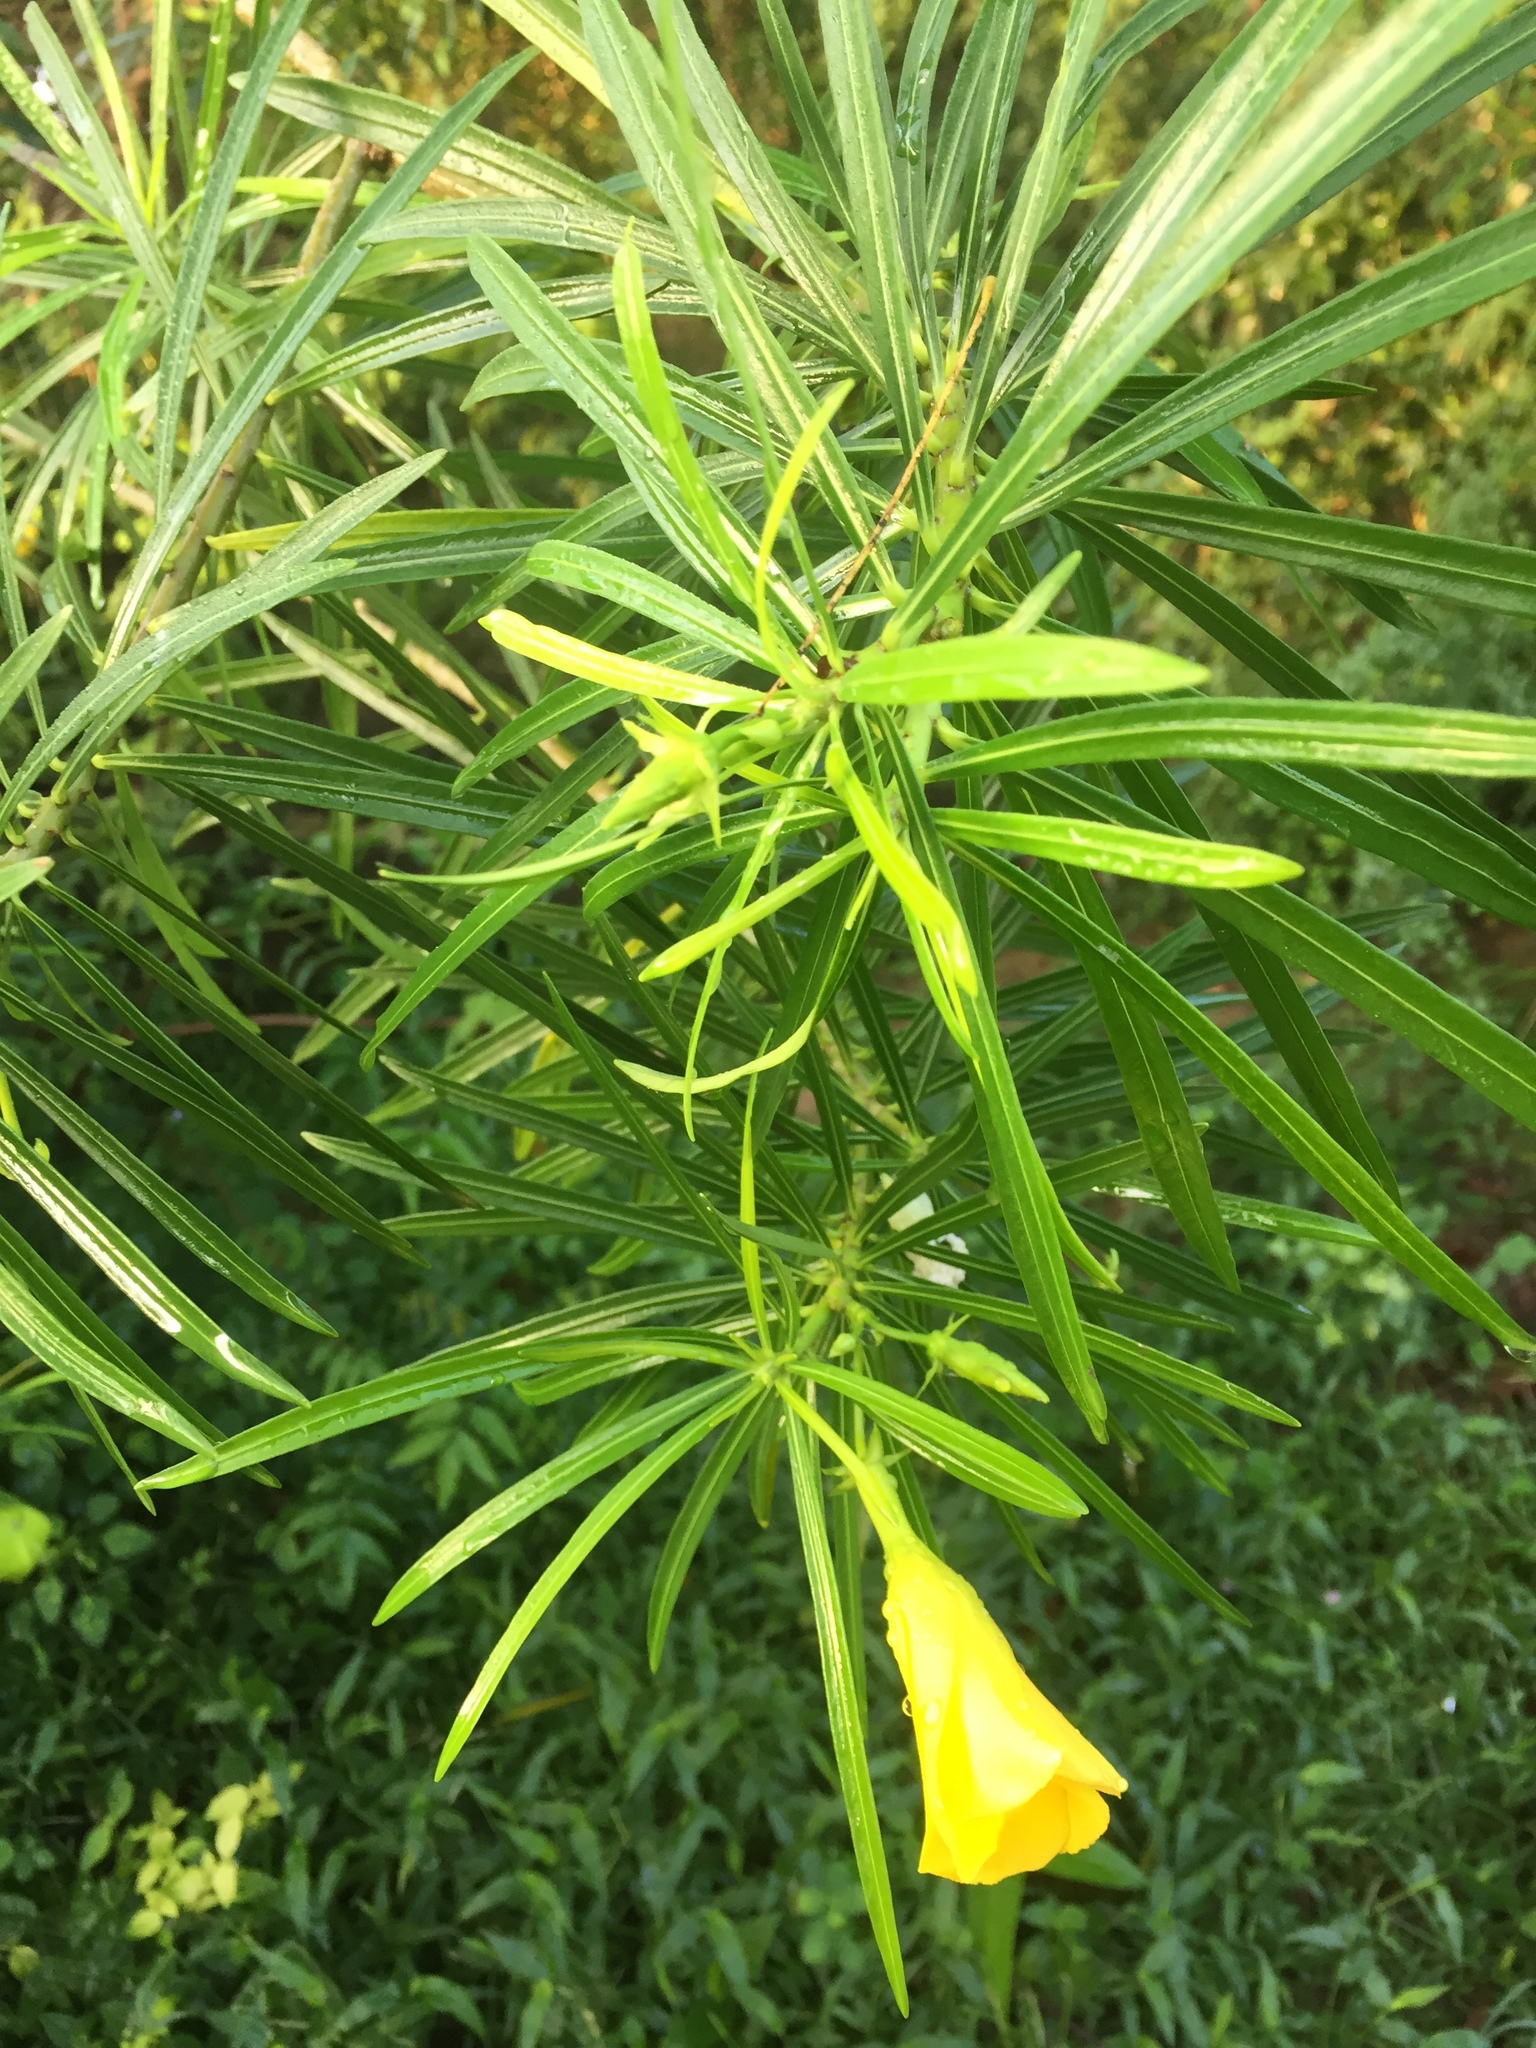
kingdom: Plantae
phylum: Tracheophyta
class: Magnoliopsida
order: Gentianales
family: Apocynaceae
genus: Cascabela
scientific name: Cascabela thevetia
